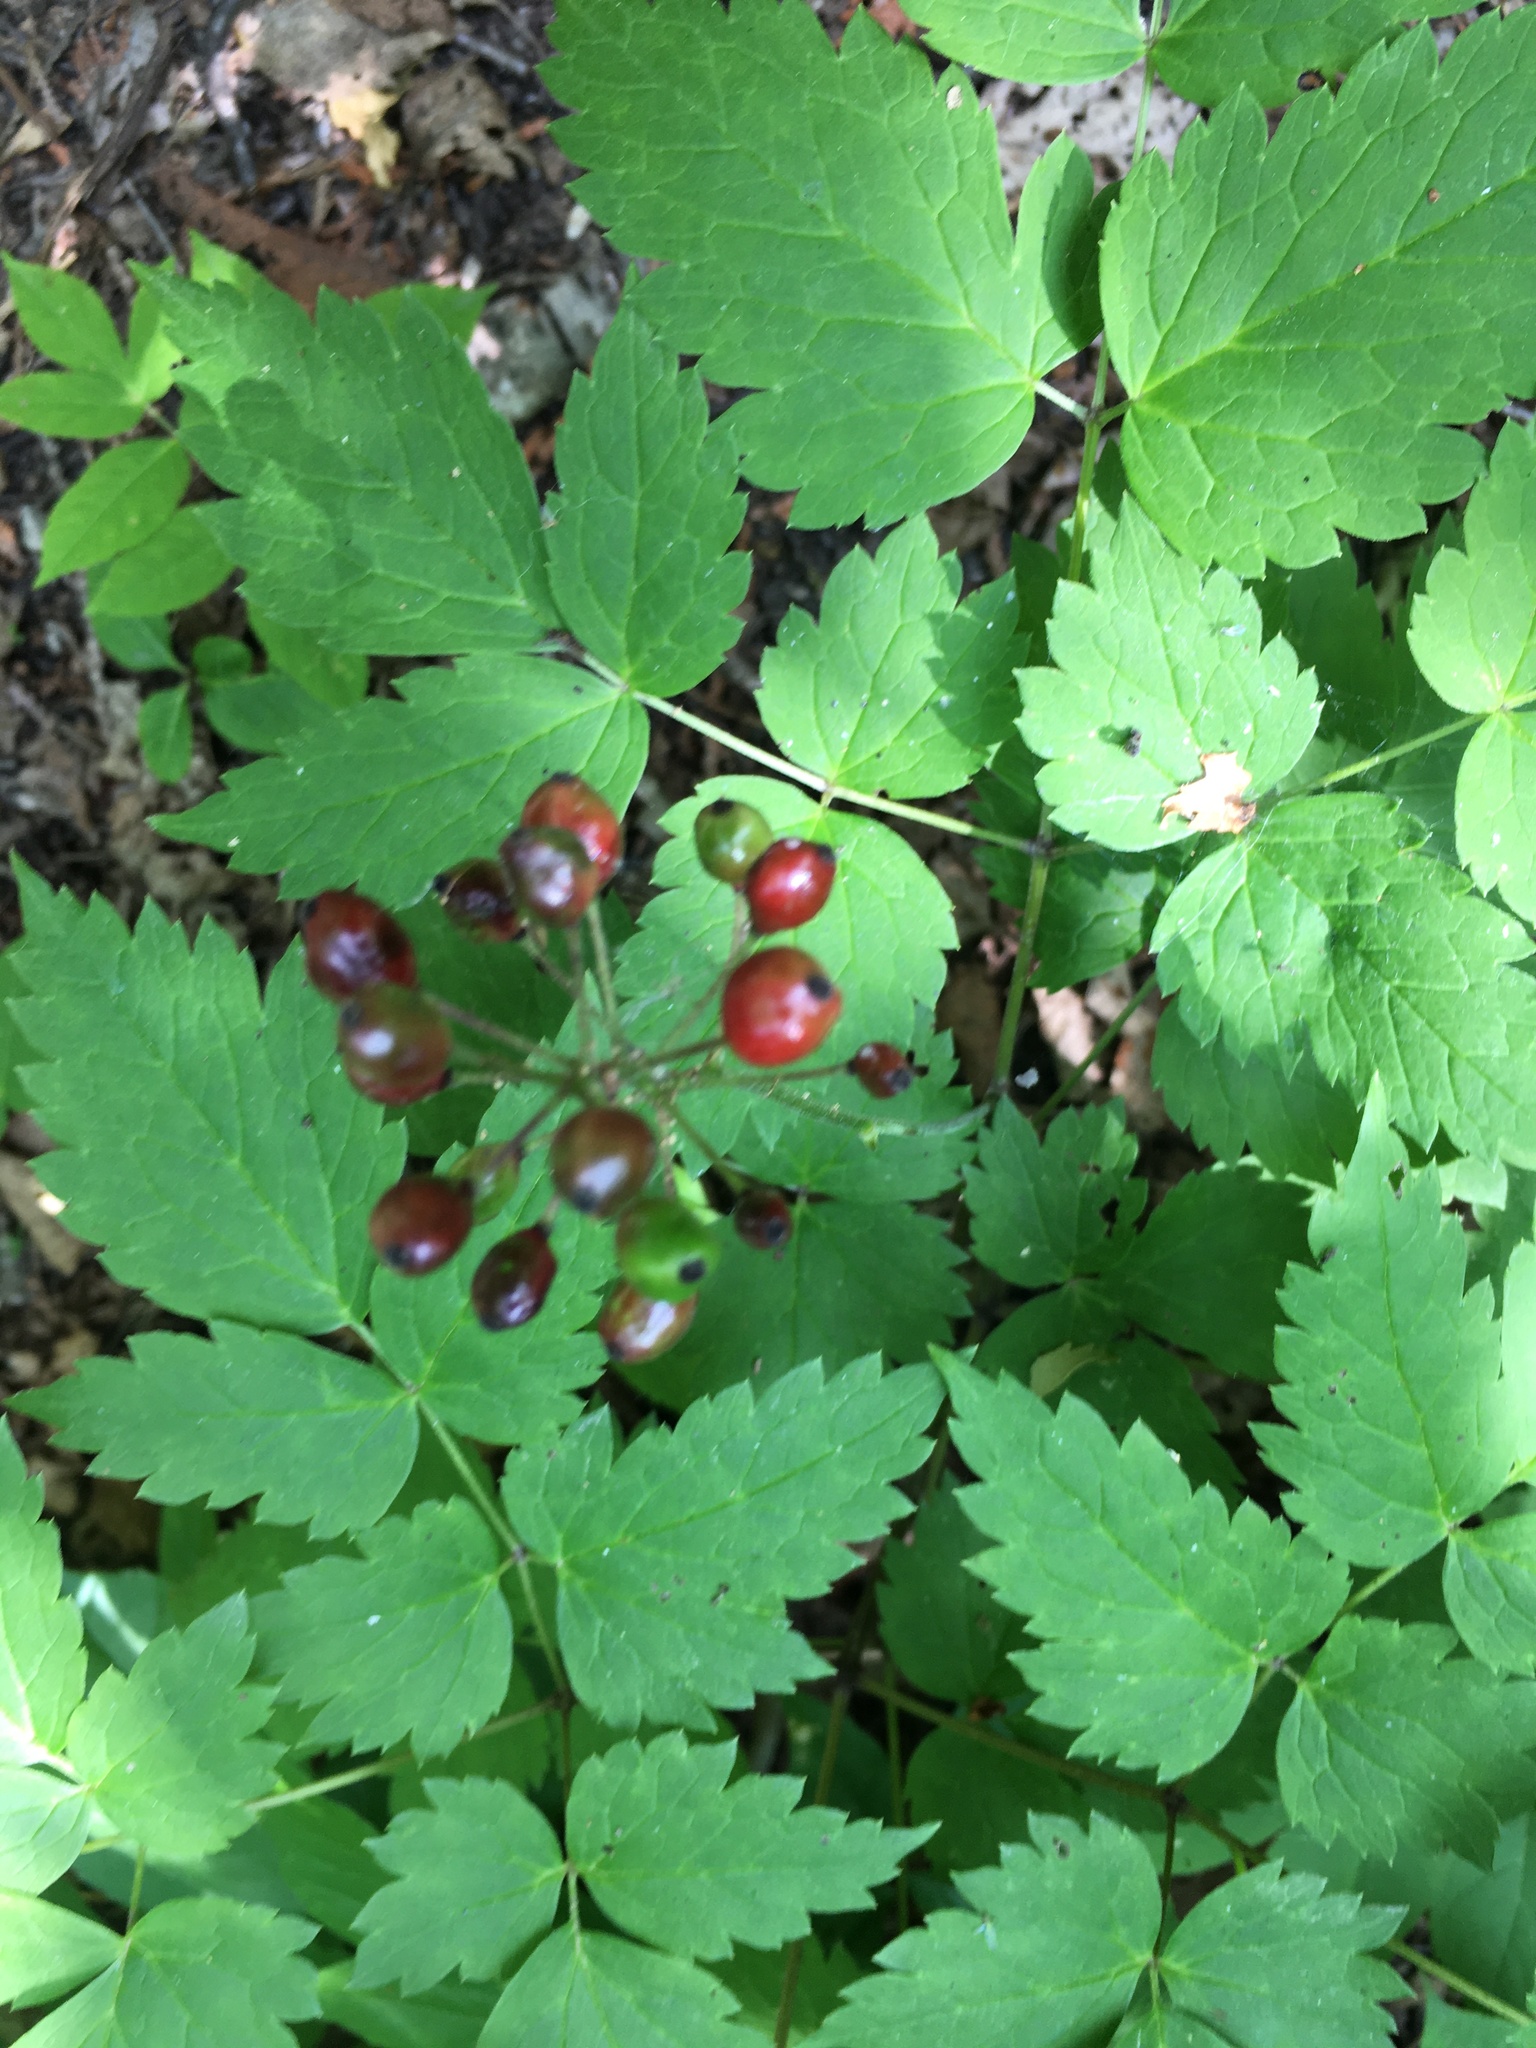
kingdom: Plantae
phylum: Tracheophyta
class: Magnoliopsida
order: Ranunculales
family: Ranunculaceae
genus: Actaea
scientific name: Actaea rubra
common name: Red baneberry
